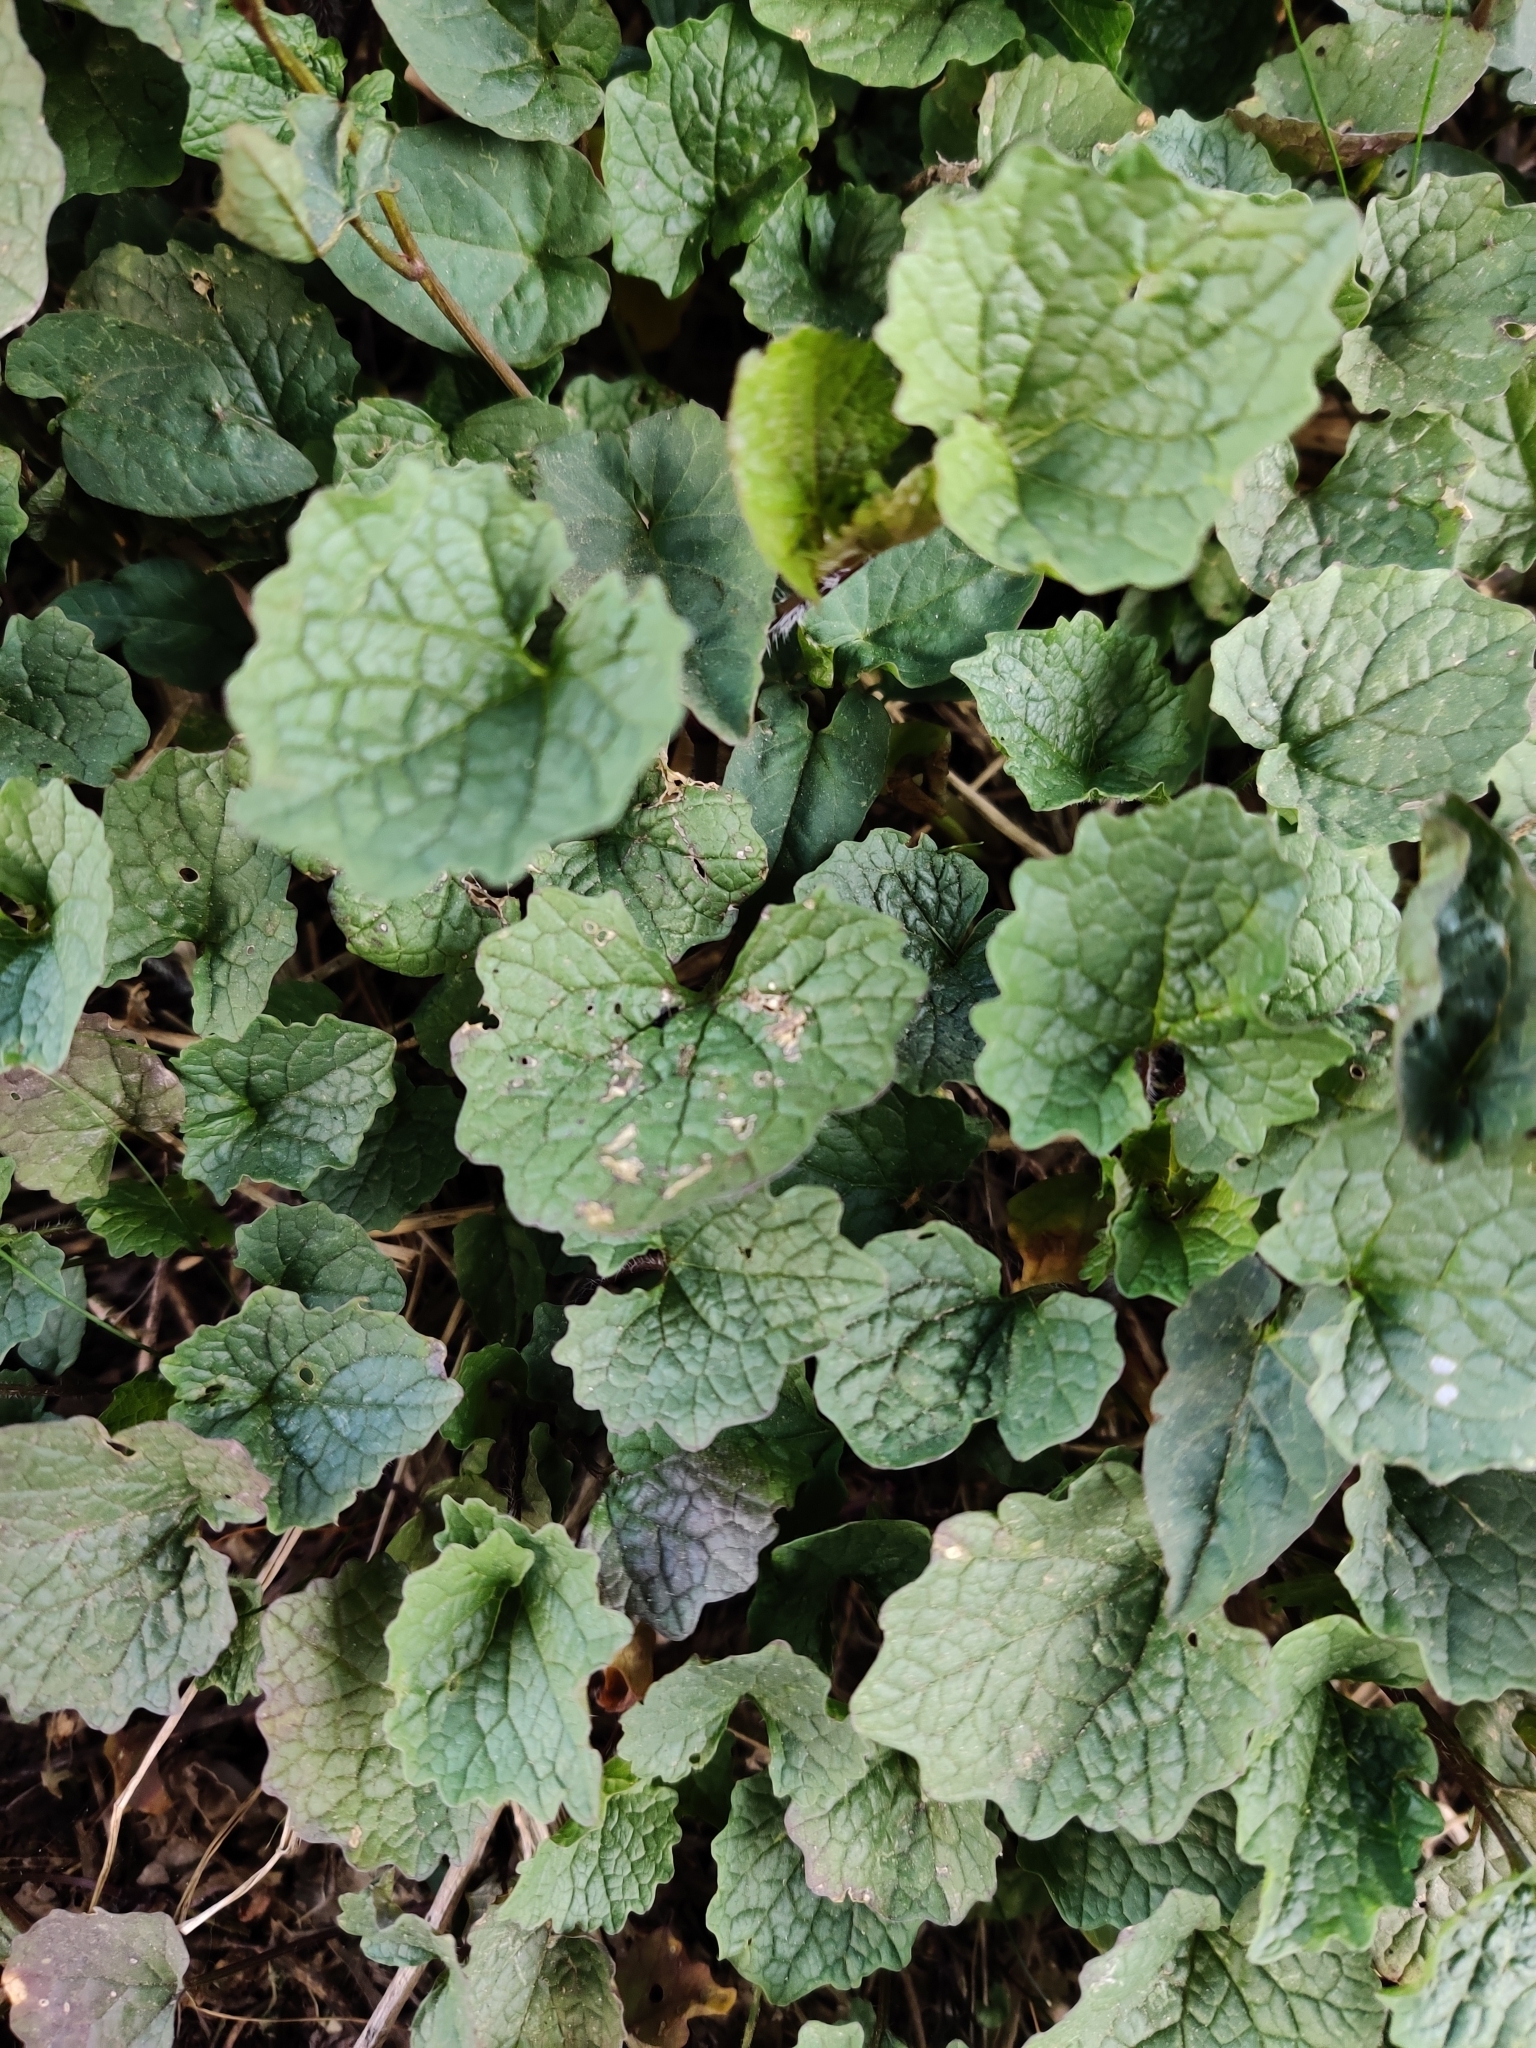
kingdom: Plantae
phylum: Tracheophyta
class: Magnoliopsida
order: Brassicales
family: Brassicaceae
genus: Alliaria
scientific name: Alliaria petiolata
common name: Garlic mustard
